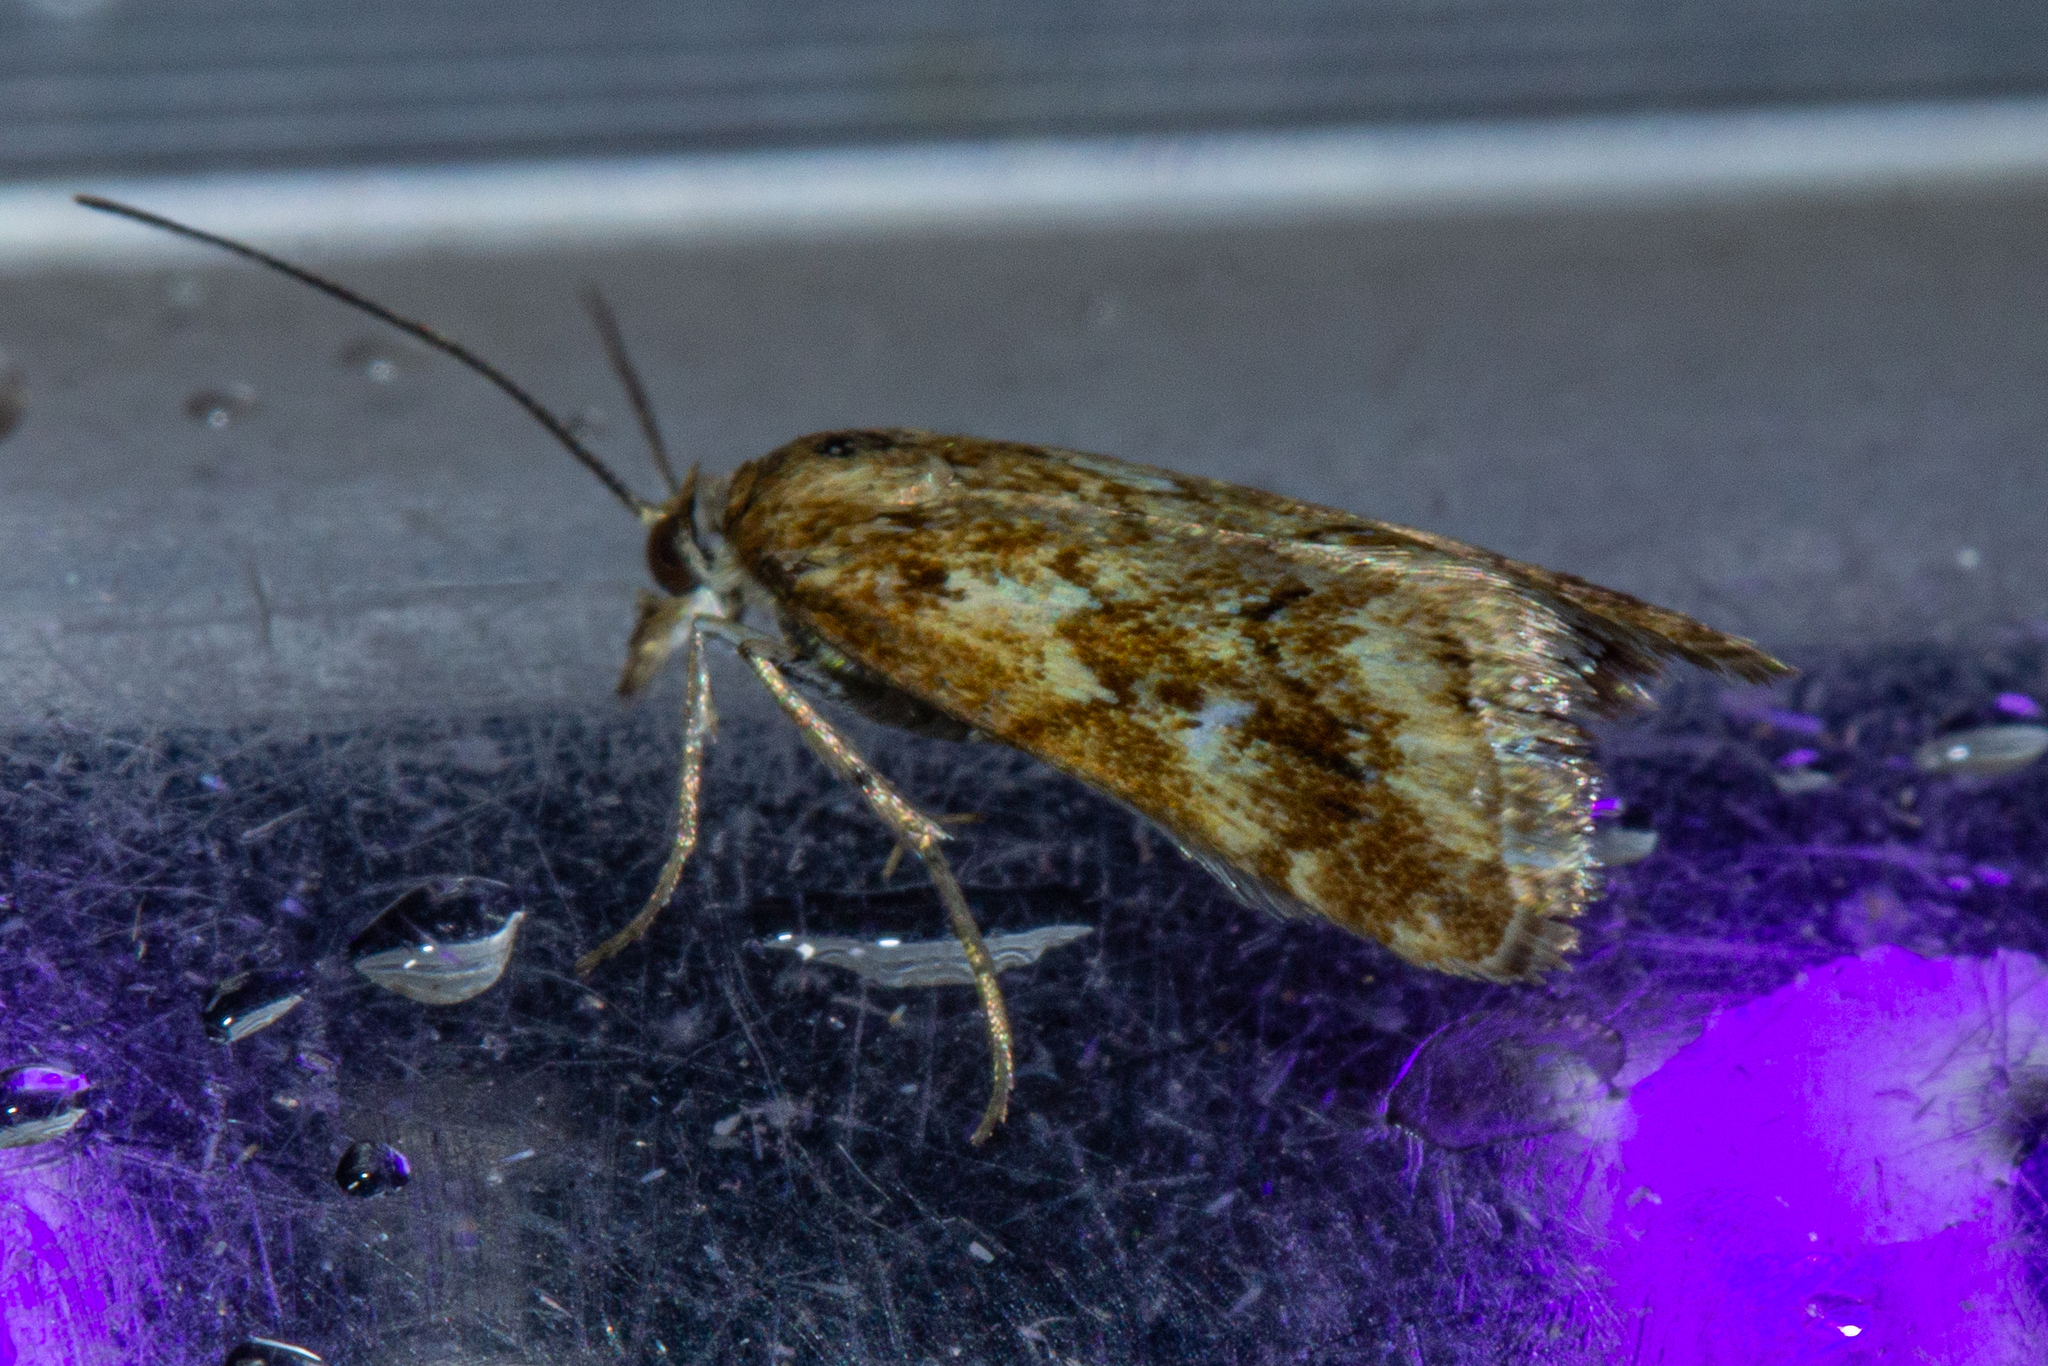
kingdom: Animalia
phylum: Arthropoda
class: Insecta
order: Lepidoptera
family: Crambidae
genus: Glaucocharis
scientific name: Glaucocharis helioctypa
